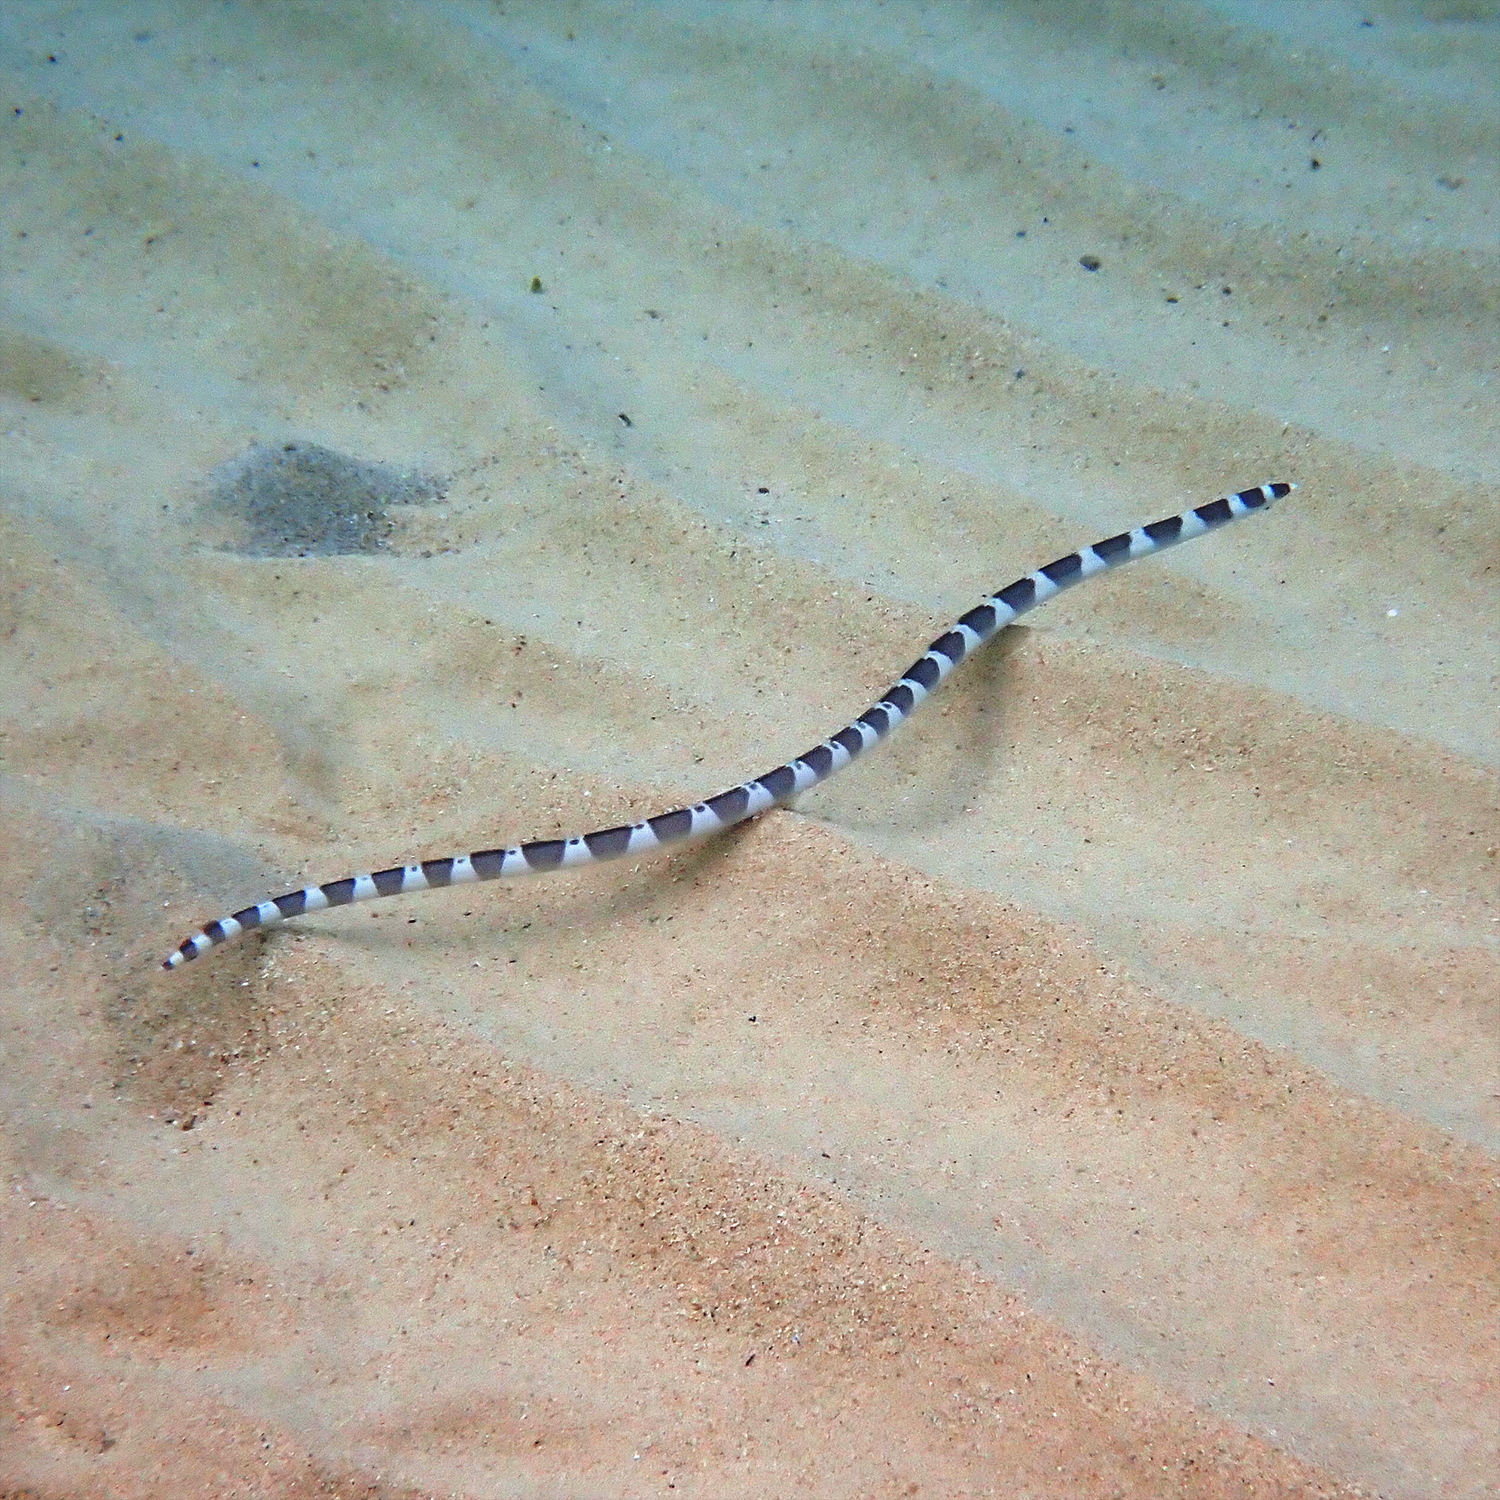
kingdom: Animalia
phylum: Chordata
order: Anguilliformes
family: Ophichthidae
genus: Leiuranus
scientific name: Leiuranus versicolor
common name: Convict snake eel
